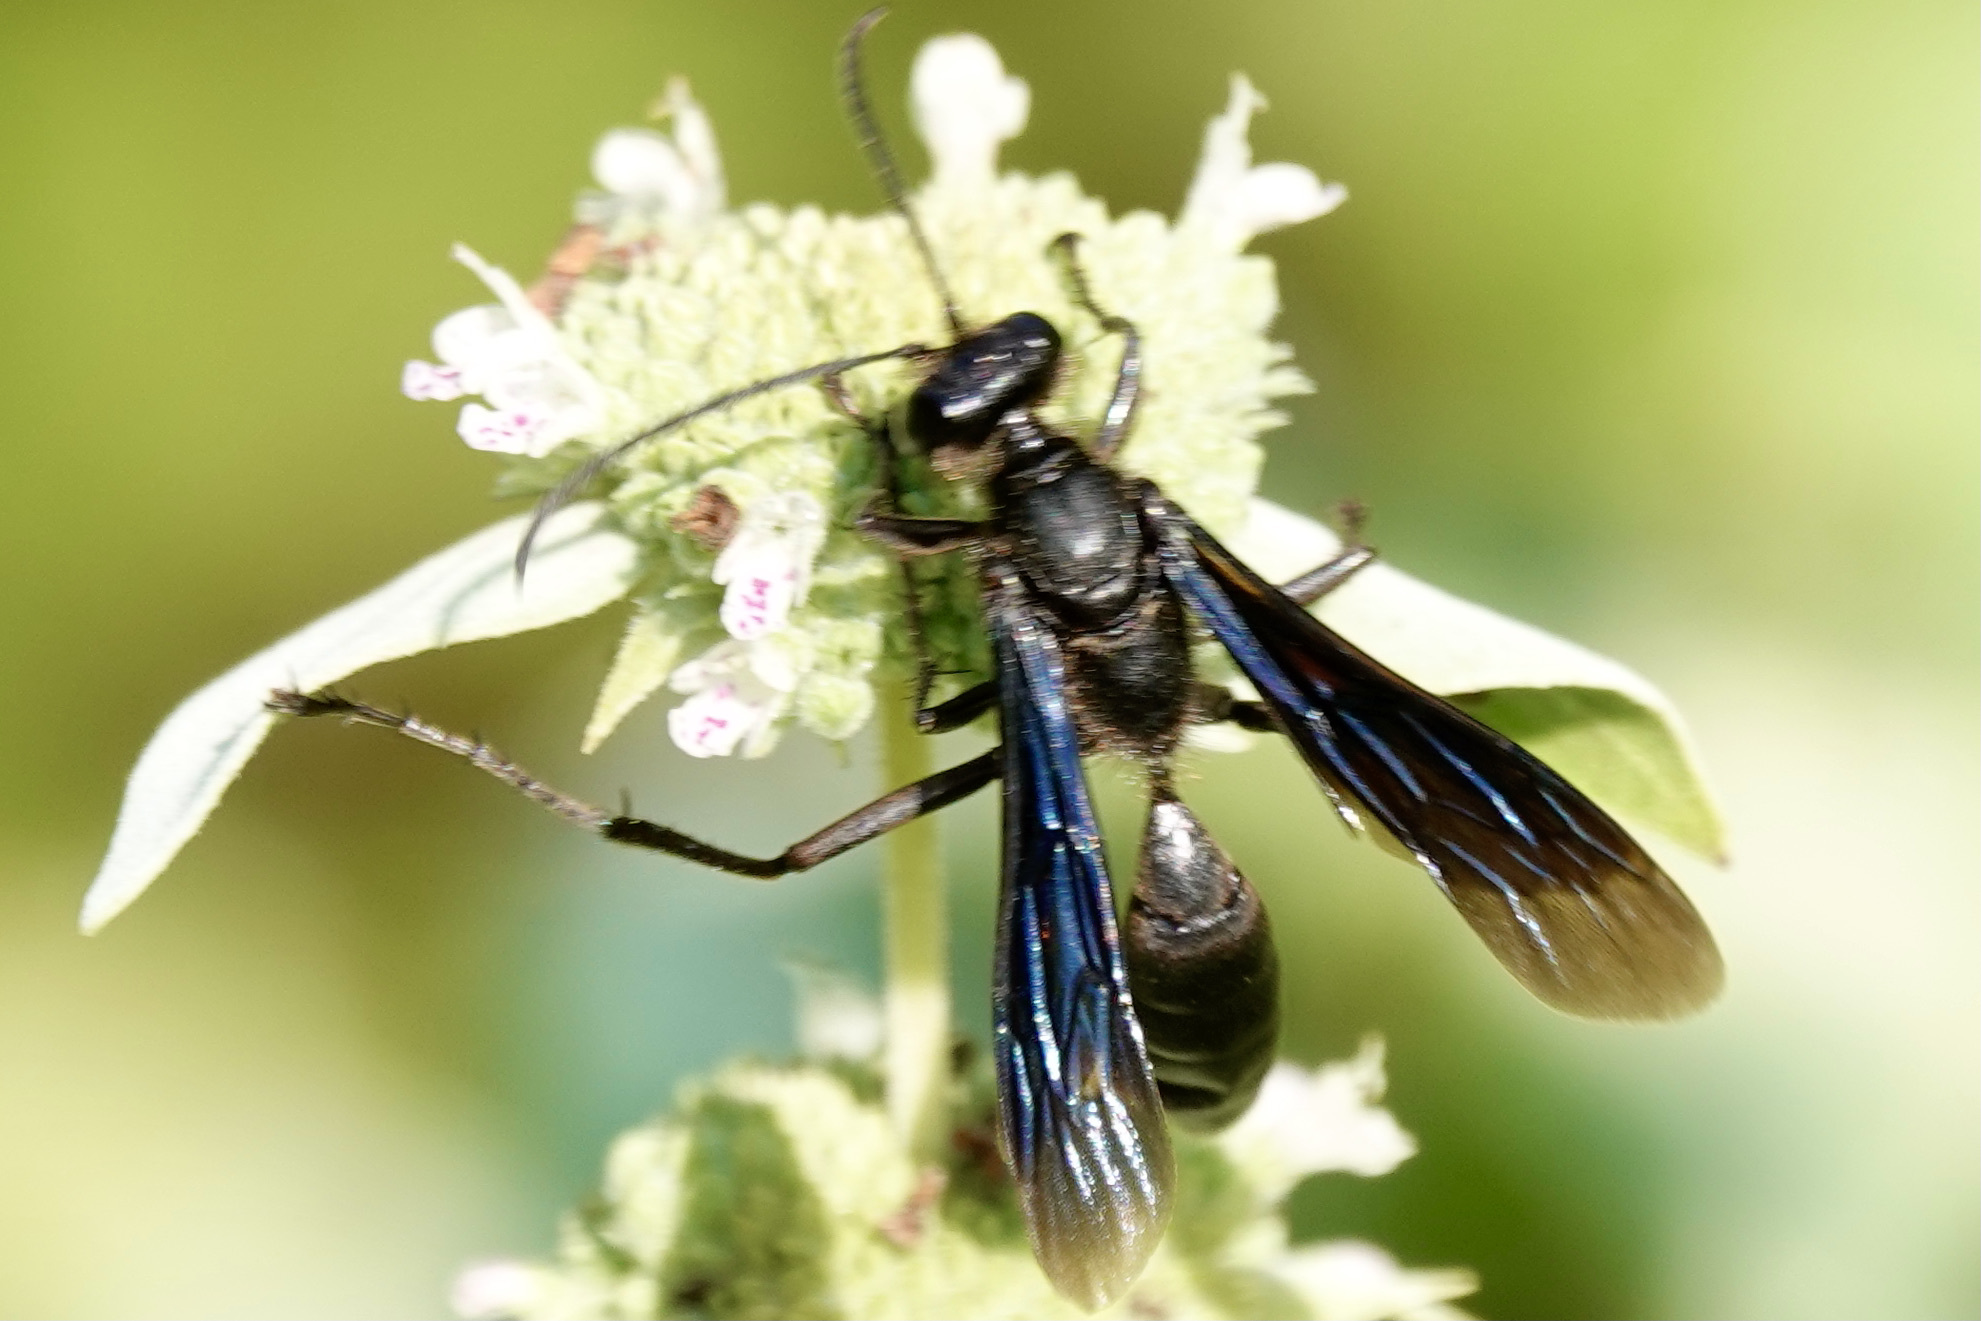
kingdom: Animalia
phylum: Arthropoda
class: Insecta
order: Hymenoptera
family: Sphecidae
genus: Isodontia
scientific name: Isodontia philadelphica
